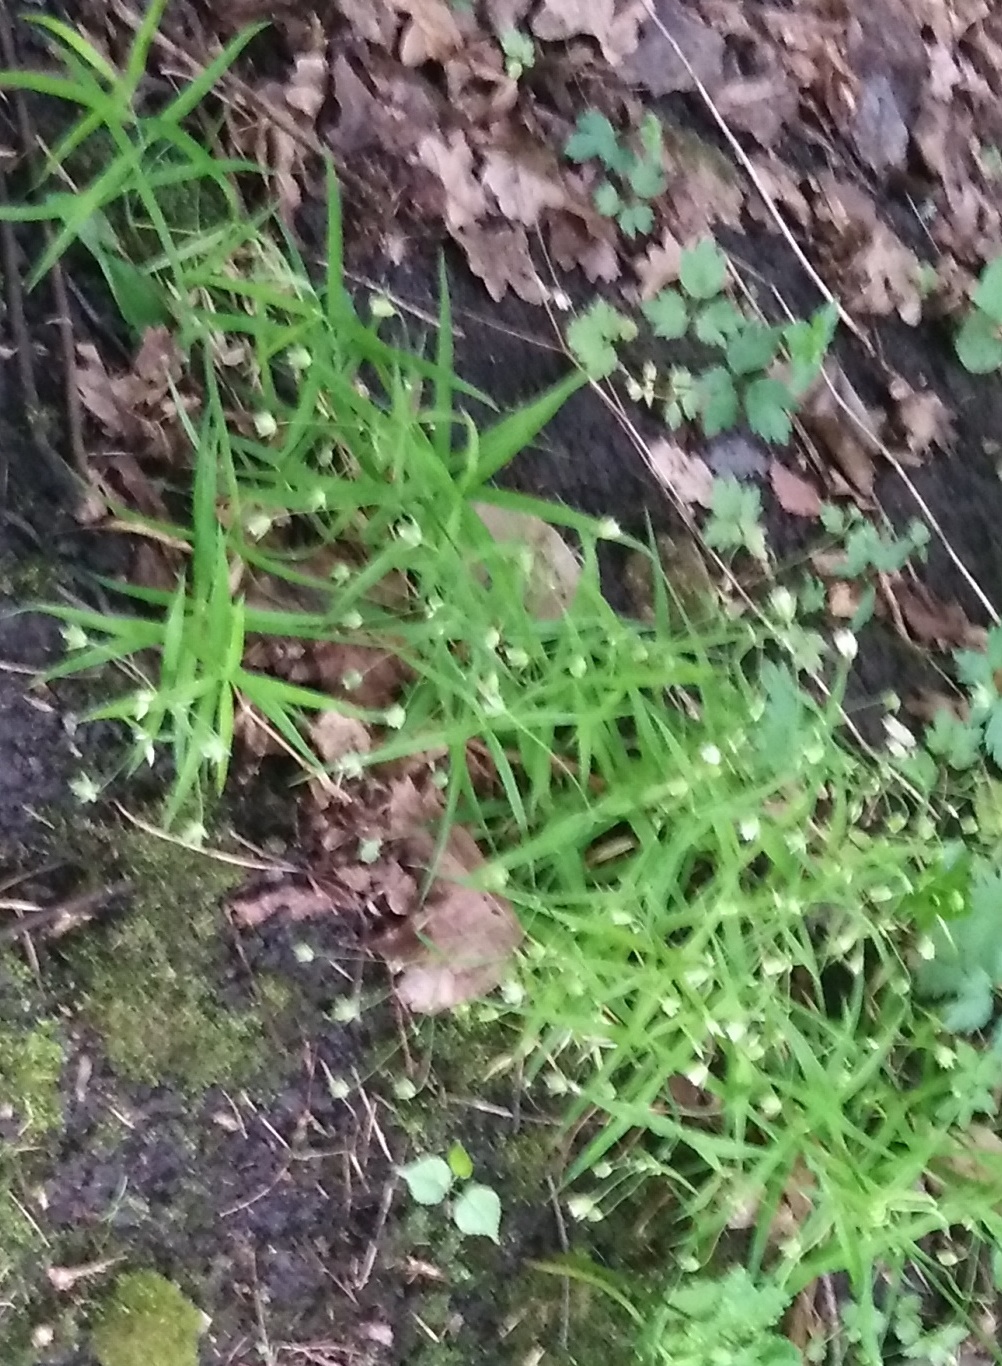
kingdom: Plantae
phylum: Tracheophyta
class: Magnoliopsida
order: Caryophyllales
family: Caryophyllaceae
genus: Rabelera
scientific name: Rabelera holostea
